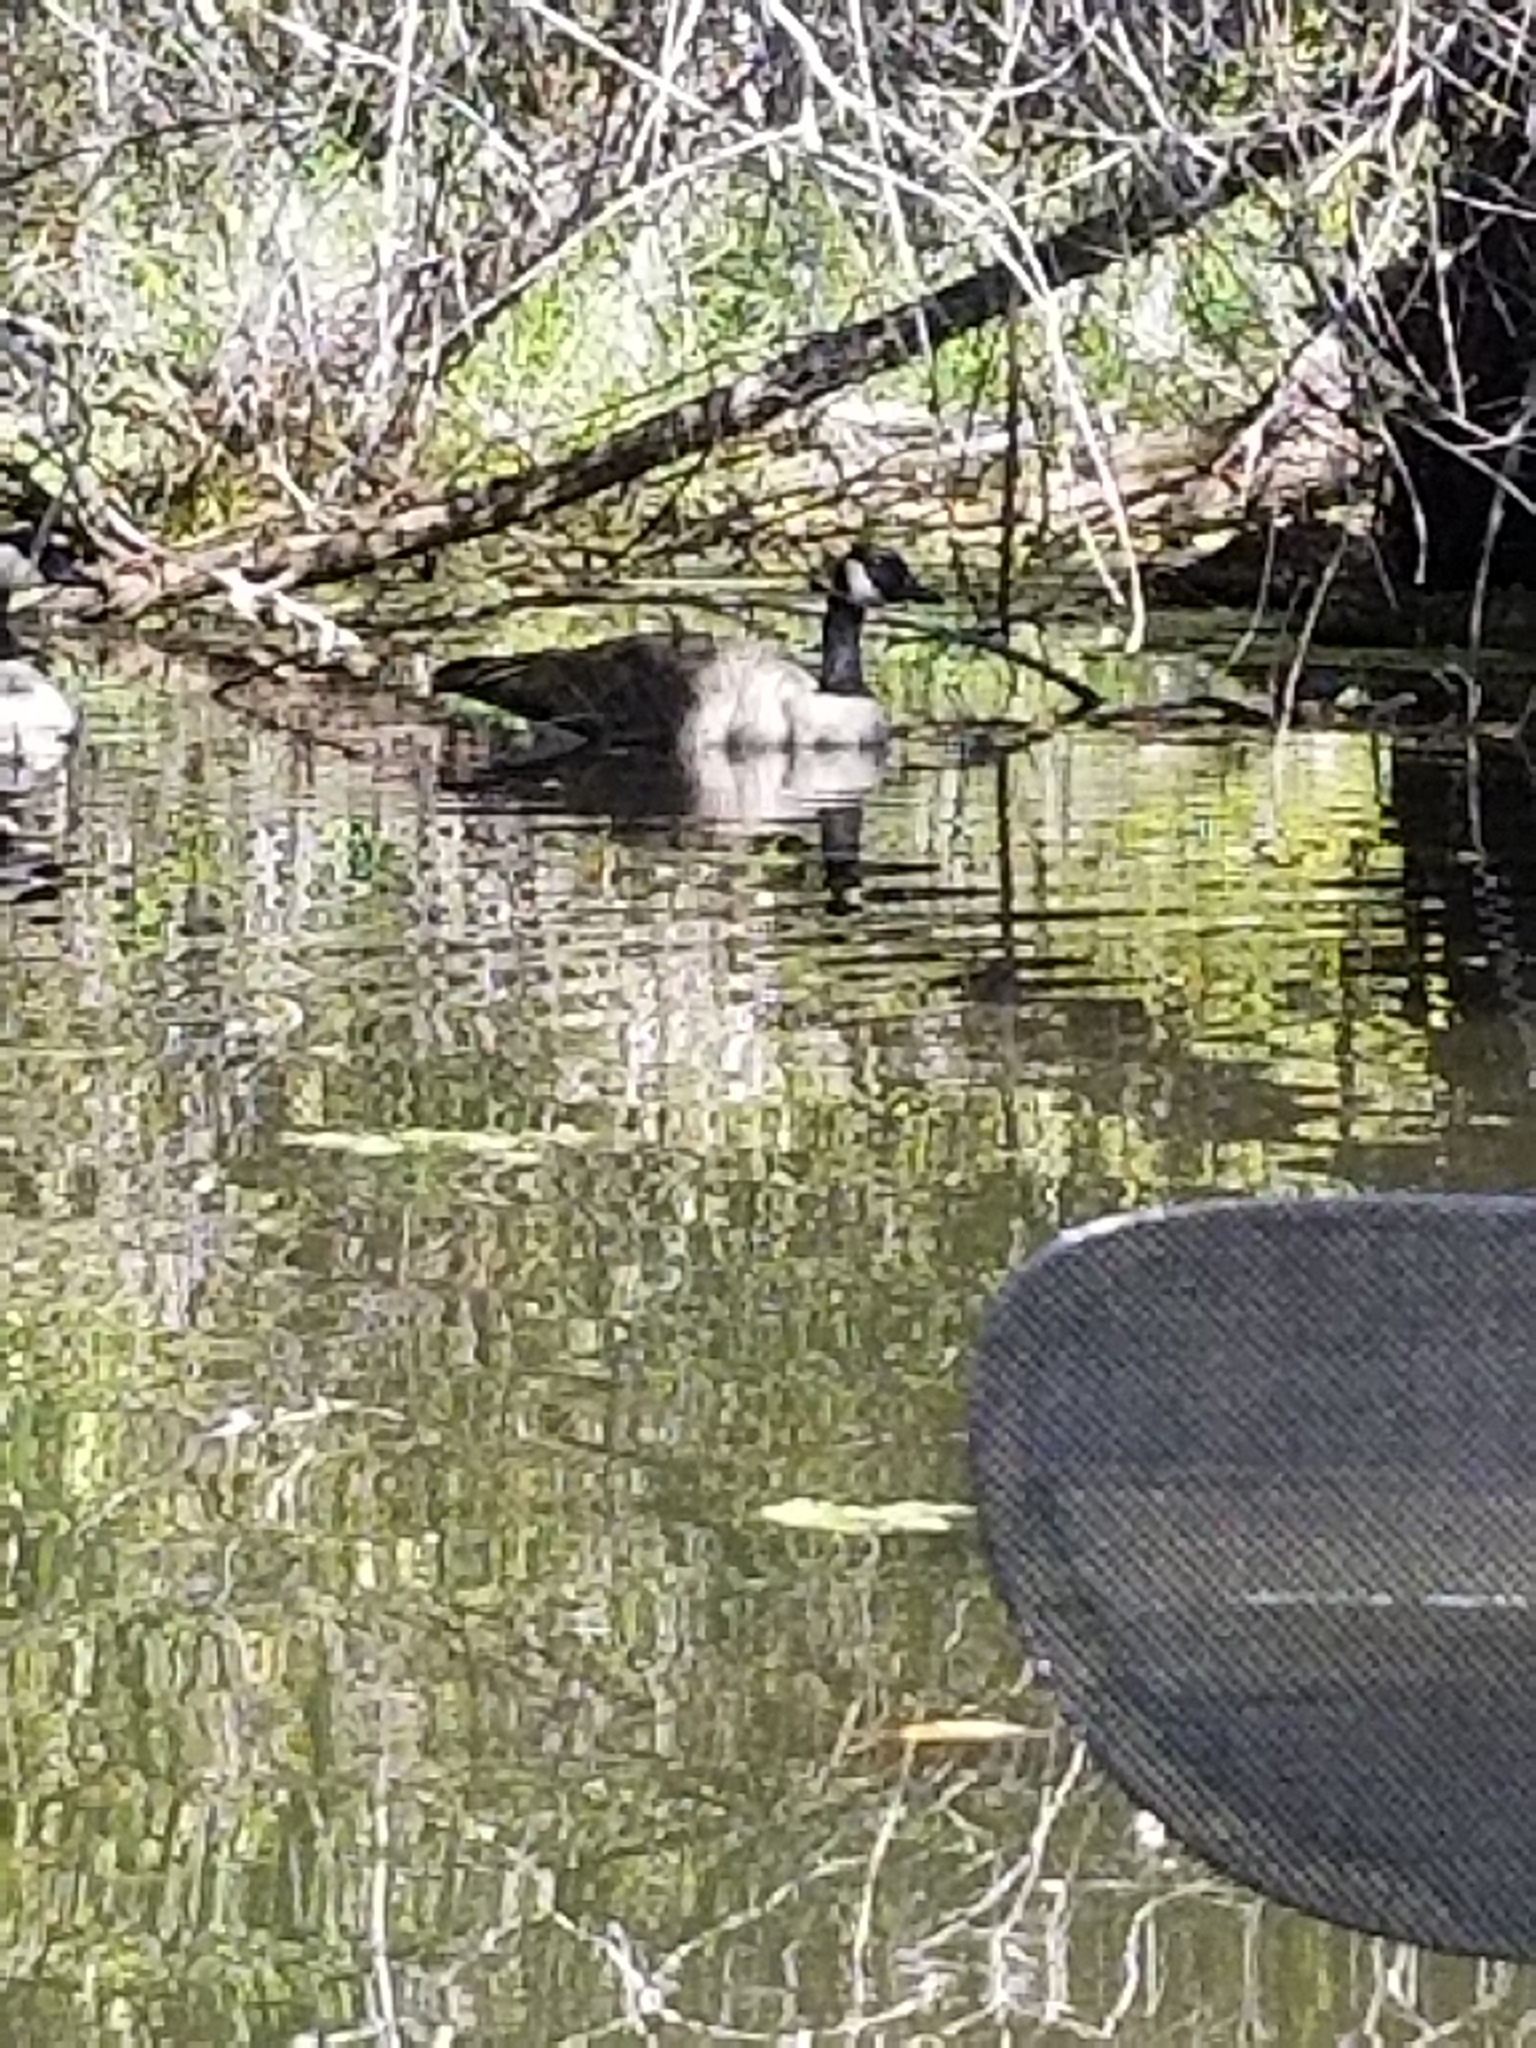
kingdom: Animalia
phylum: Chordata
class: Aves
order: Anseriformes
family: Anatidae
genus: Branta
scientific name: Branta canadensis
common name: Canada goose
